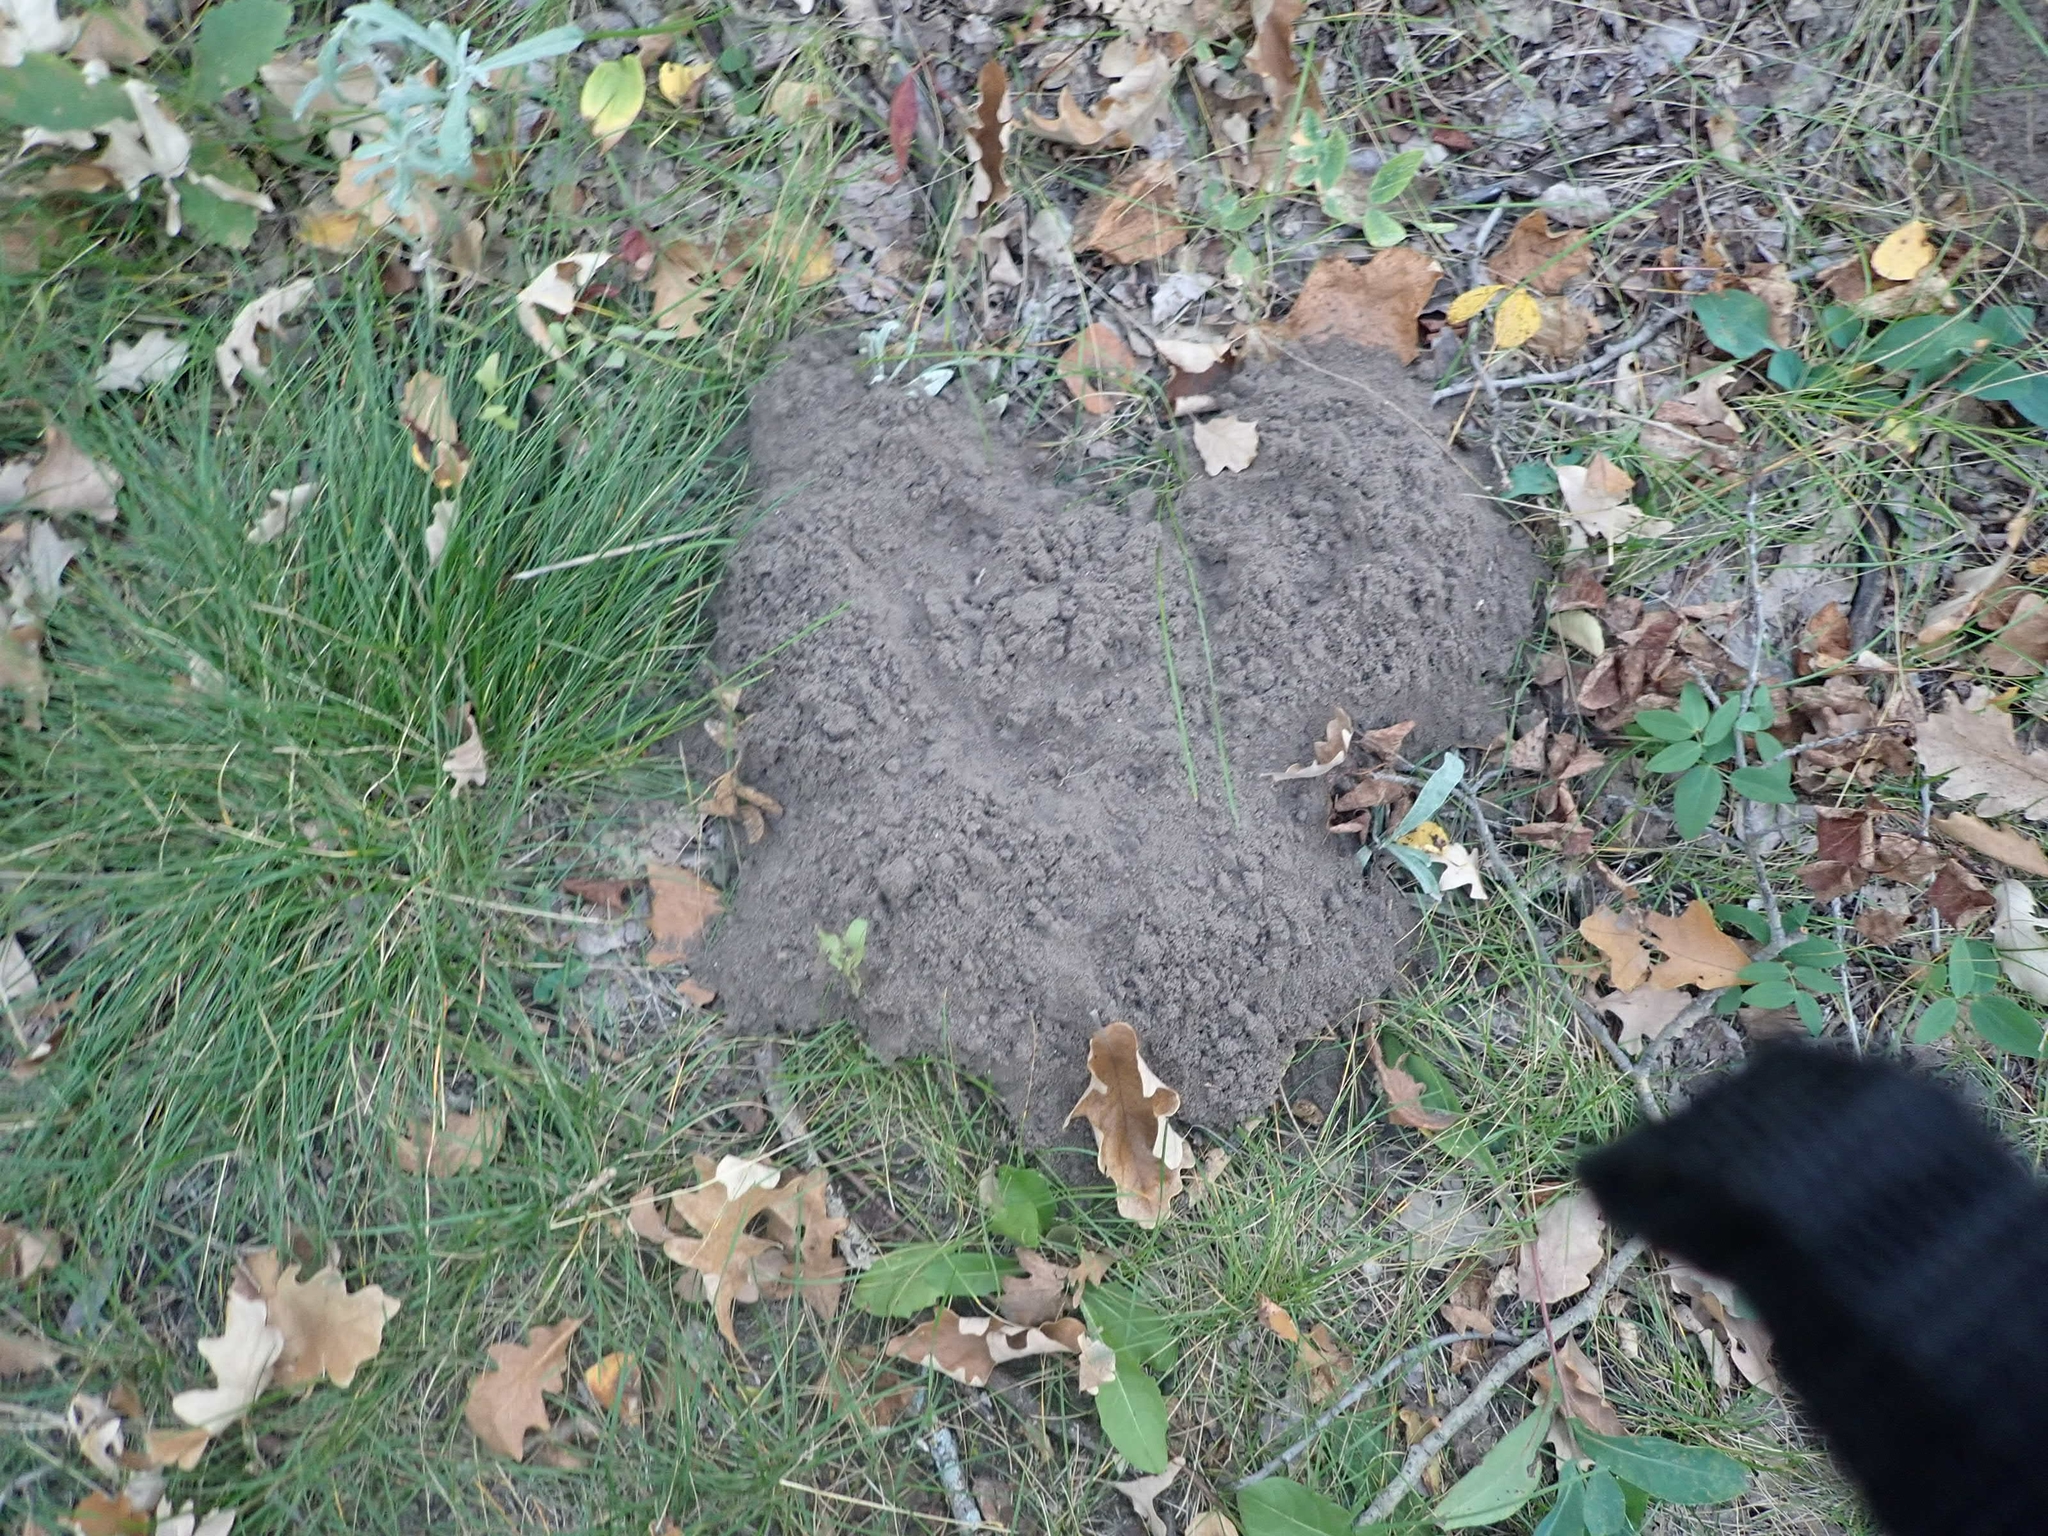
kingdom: Animalia
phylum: Chordata
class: Mammalia
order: Rodentia
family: Geomyidae
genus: Thomomys
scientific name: Thomomys talpoides
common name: Northern pocket gopher
